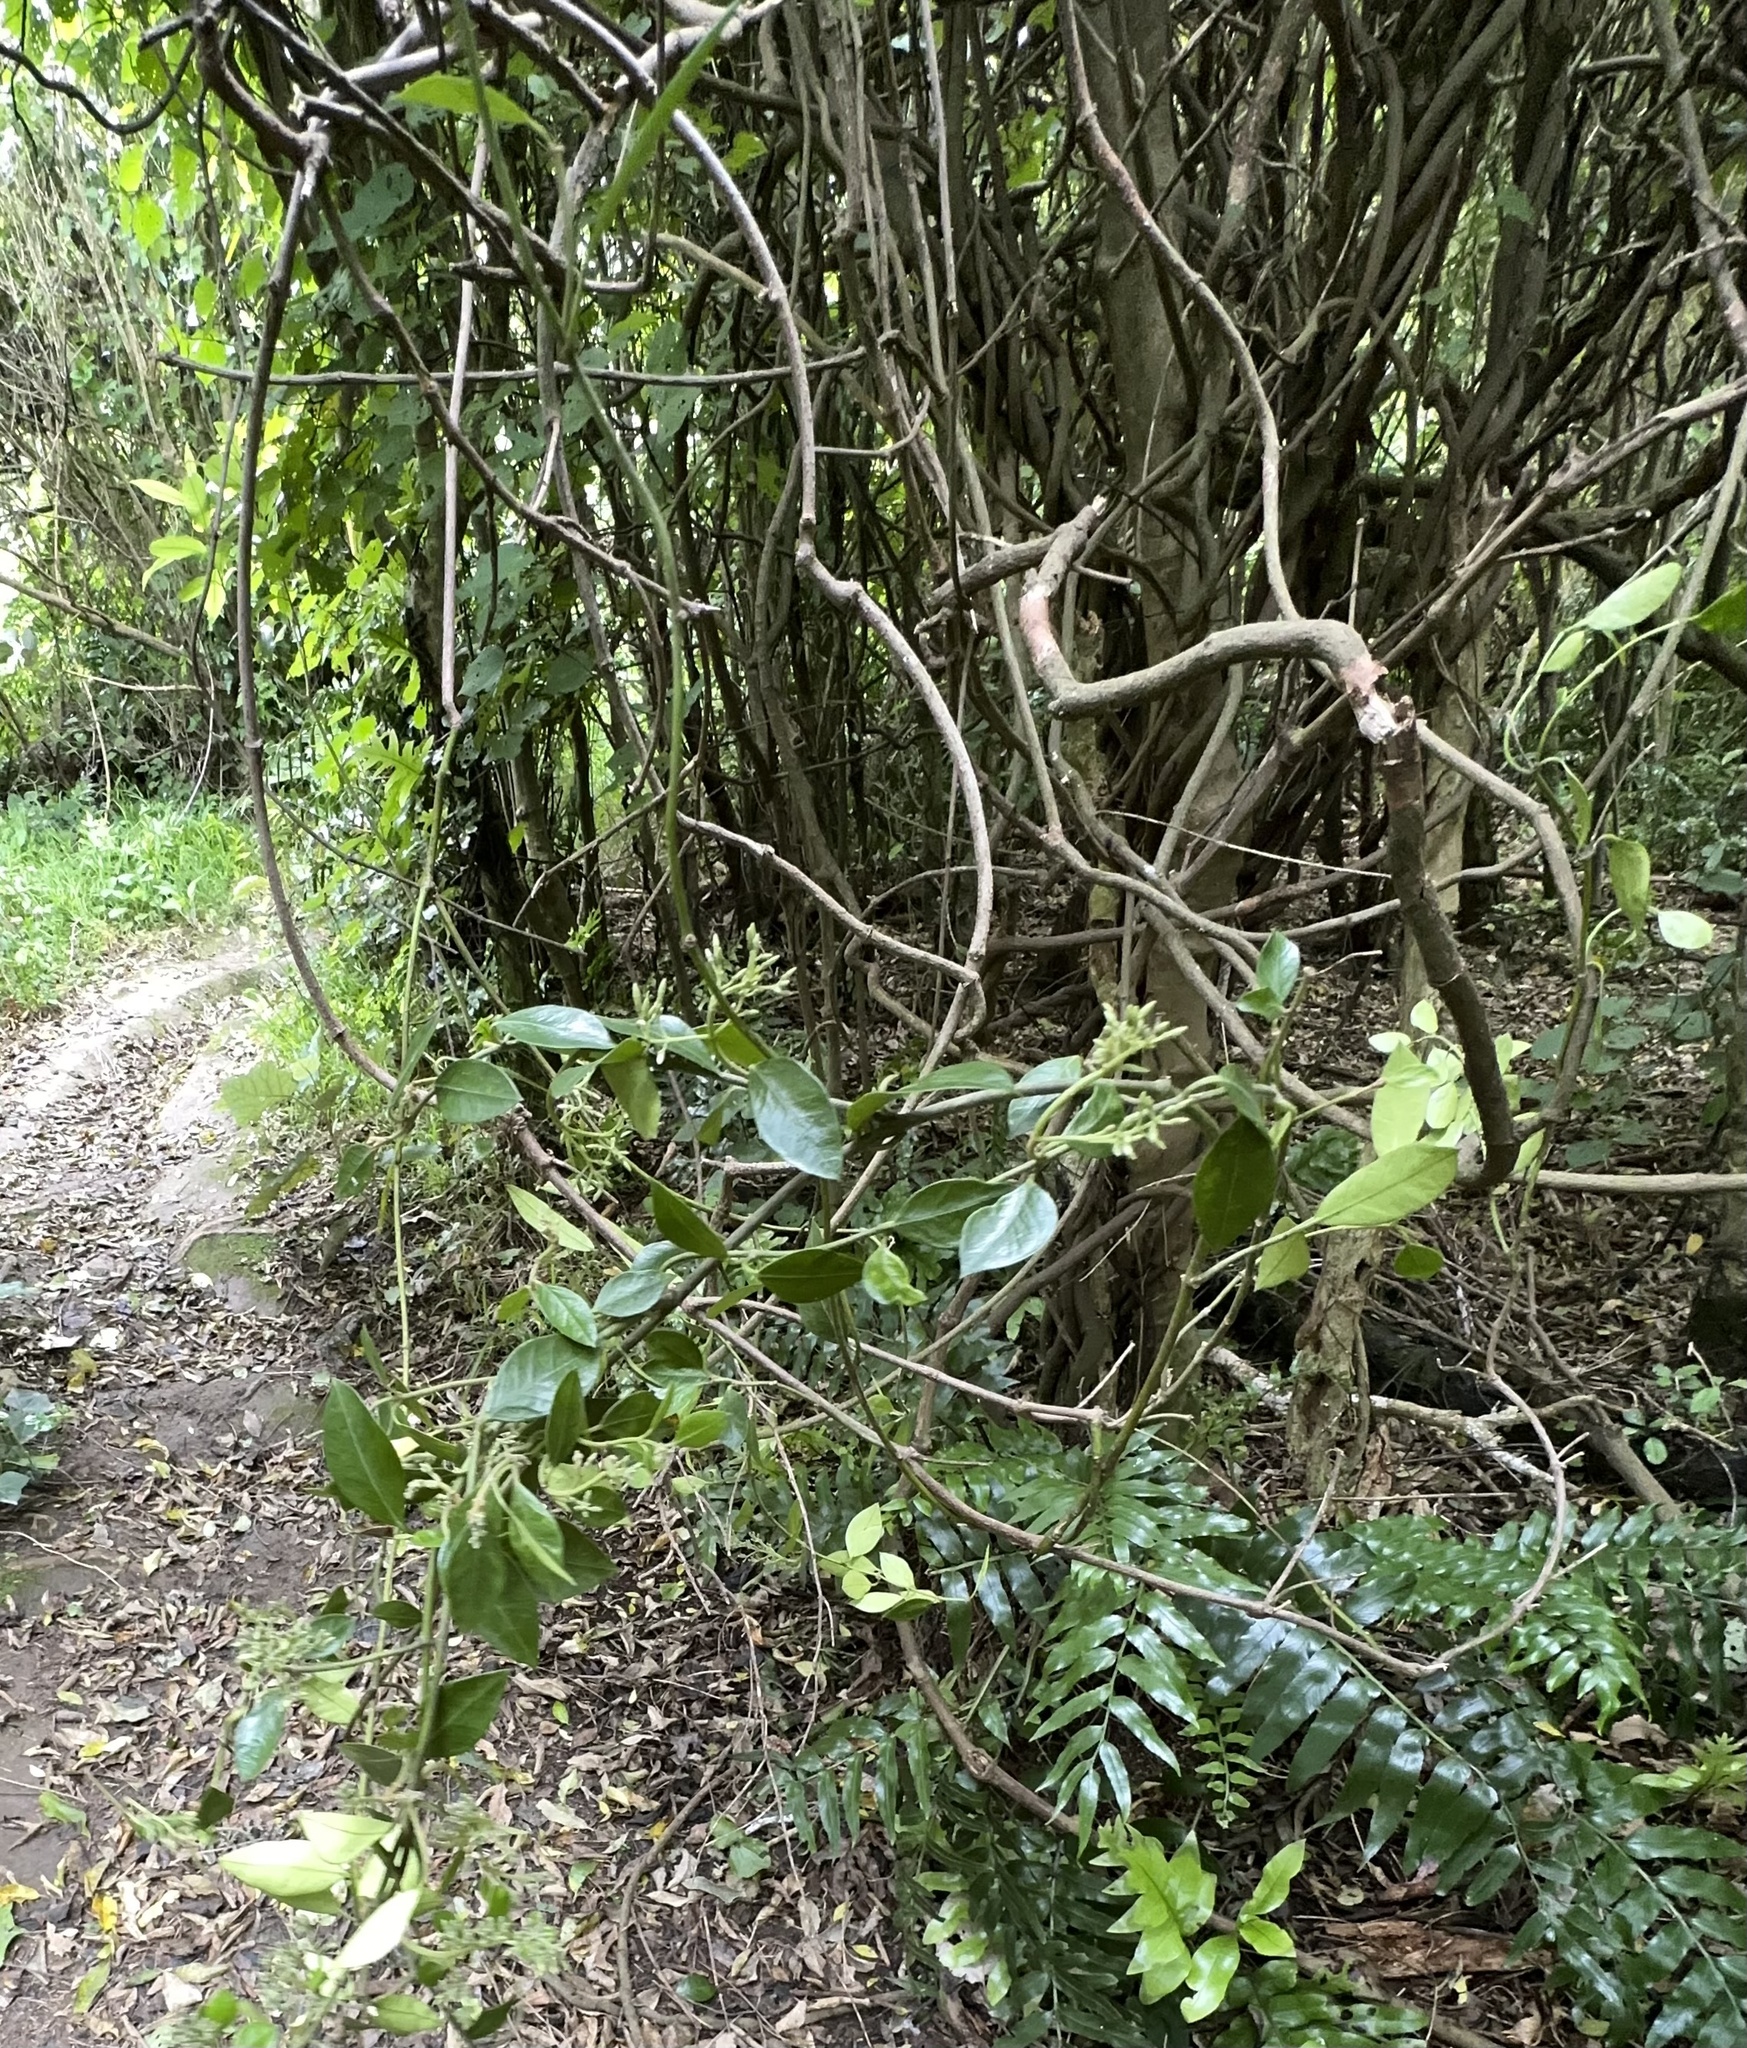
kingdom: Plantae
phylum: Tracheophyta
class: Magnoliopsida
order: Gentianales
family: Apocynaceae
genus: Parsonsia
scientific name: Parsonsia heterophylla
